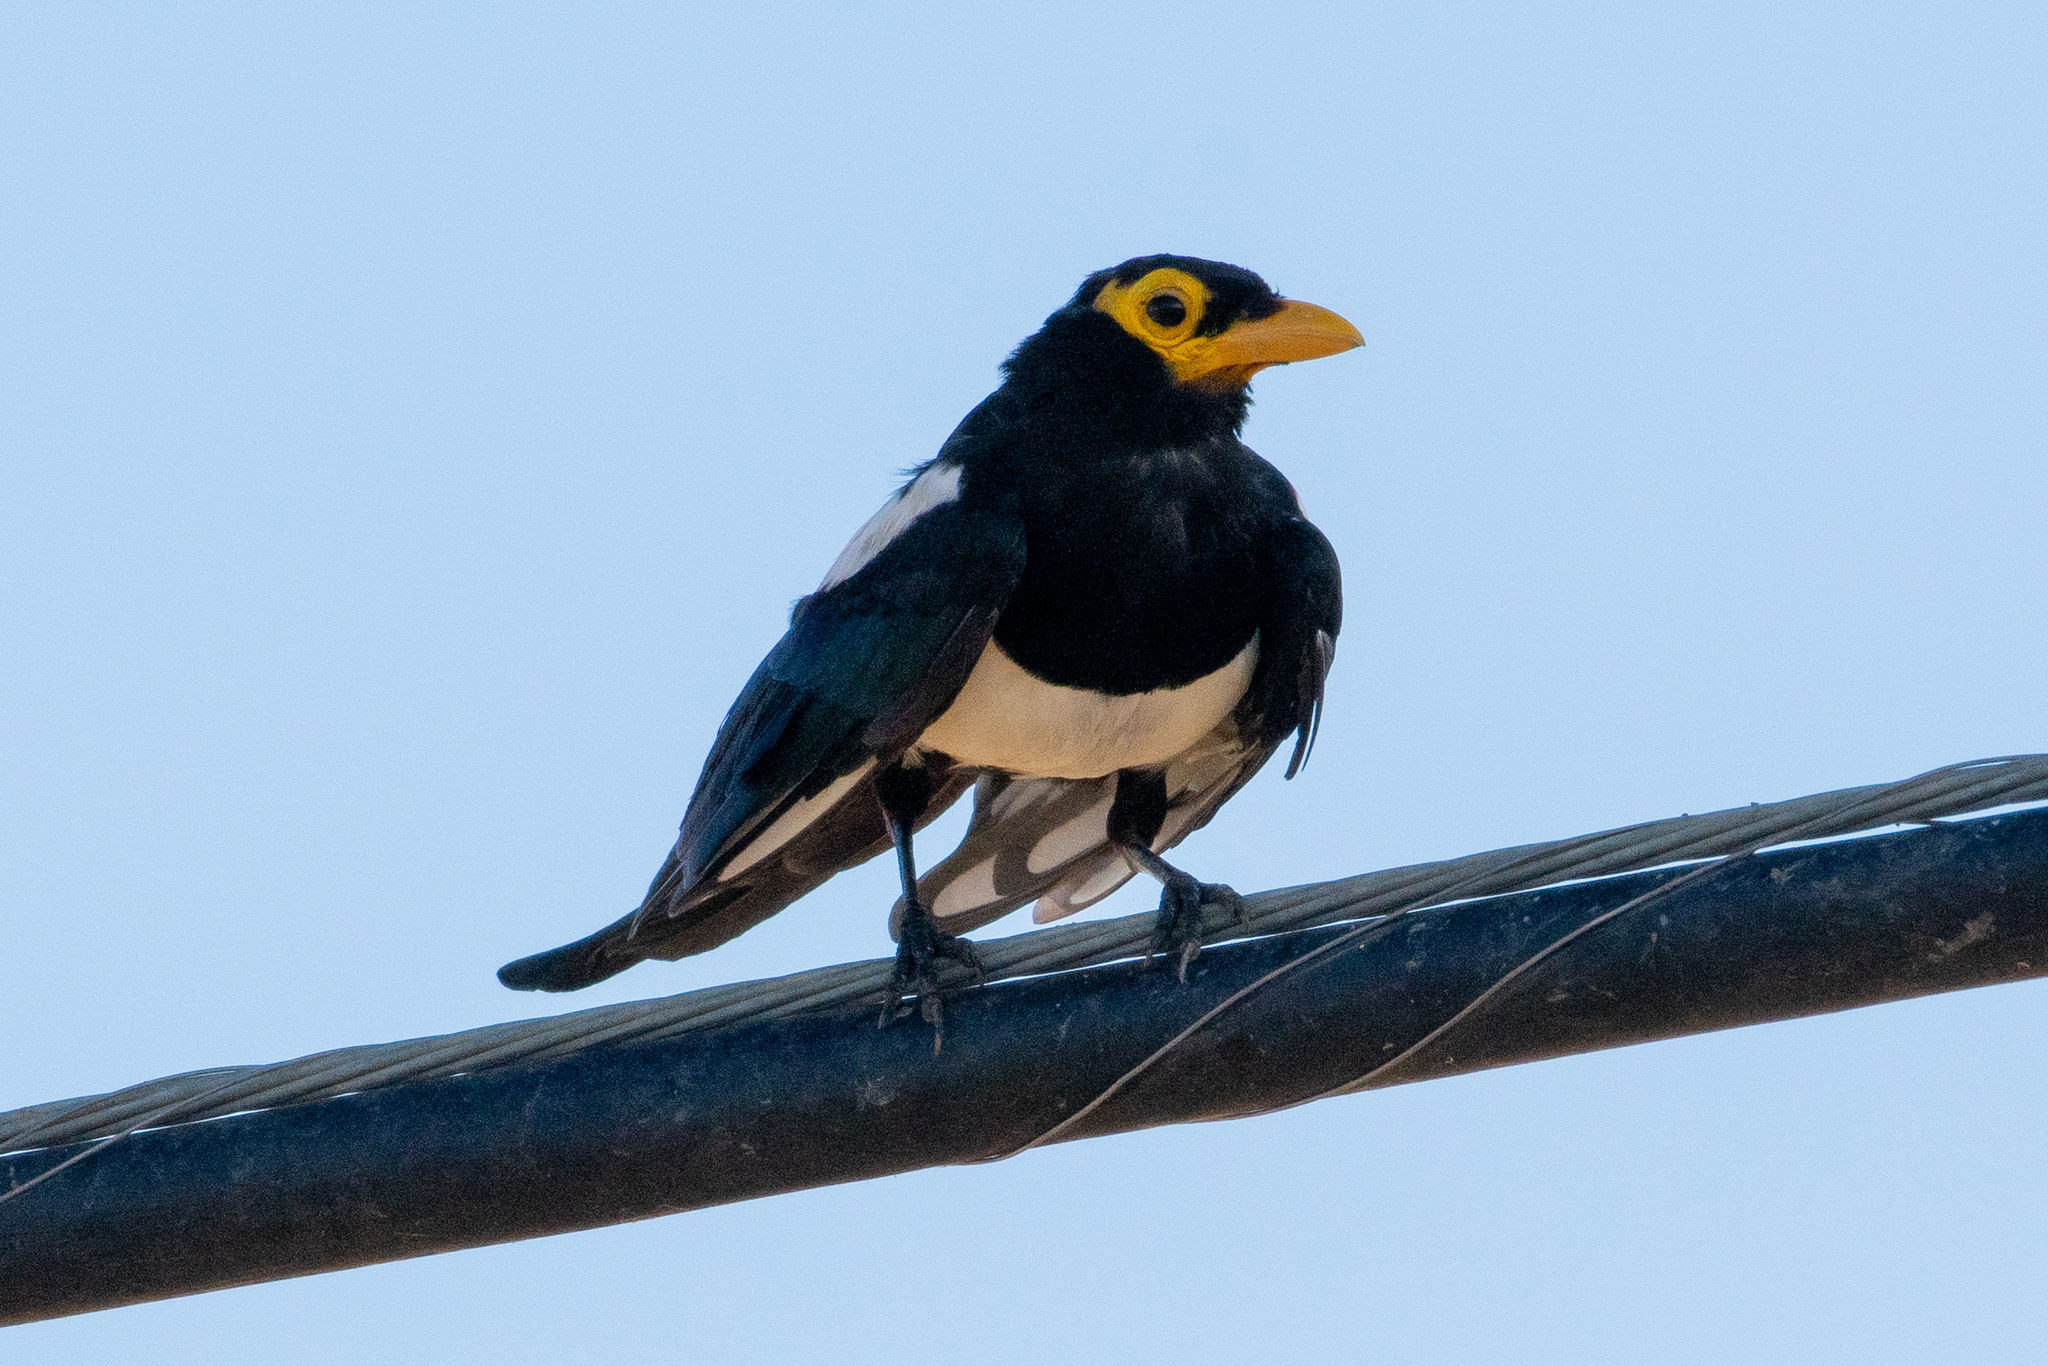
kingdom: Animalia
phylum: Chordata
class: Aves
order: Passeriformes
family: Corvidae
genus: Pica
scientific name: Pica nuttalli
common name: Yellow-billed magpie
